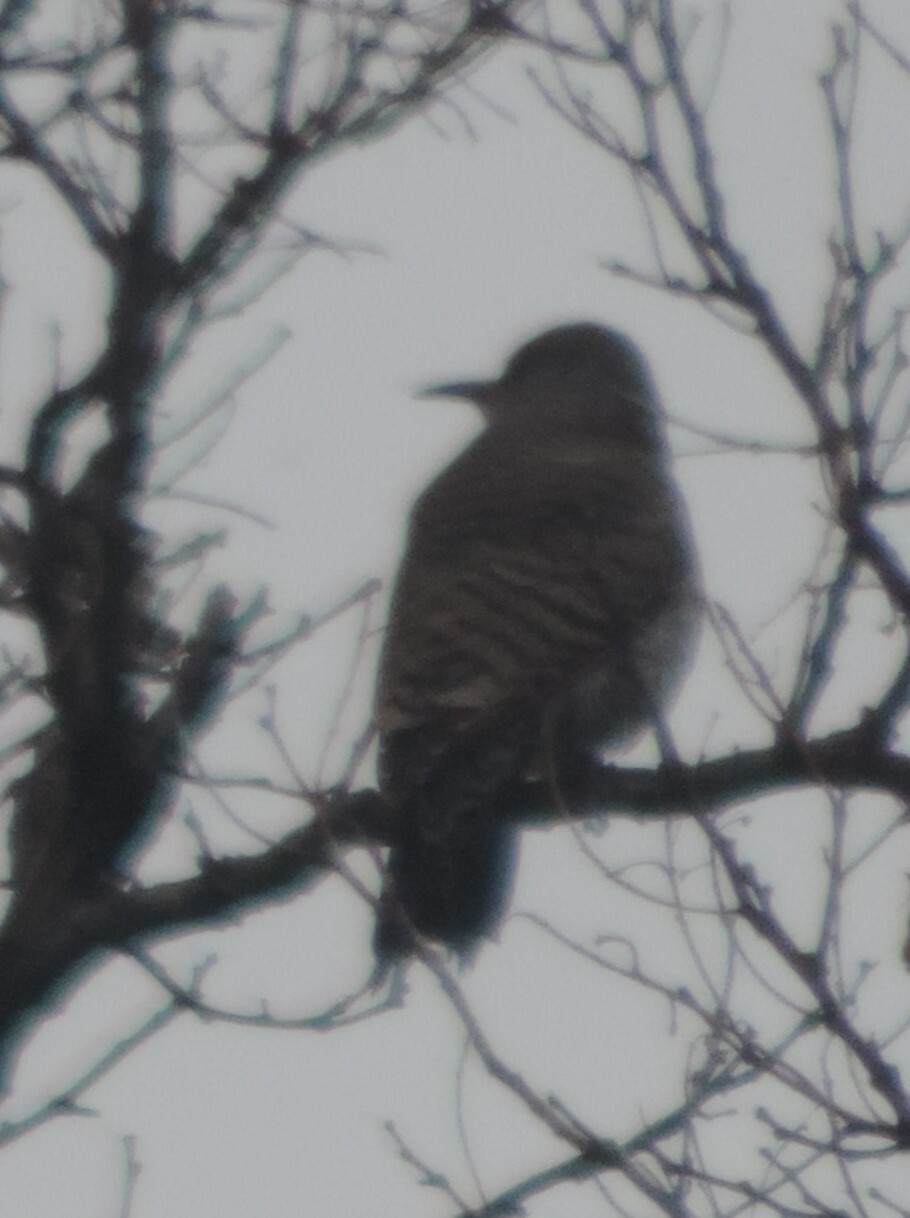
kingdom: Animalia
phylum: Chordata
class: Aves
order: Piciformes
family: Picidae
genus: Colaptes
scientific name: Colaptes auratus
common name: Northern flicker
